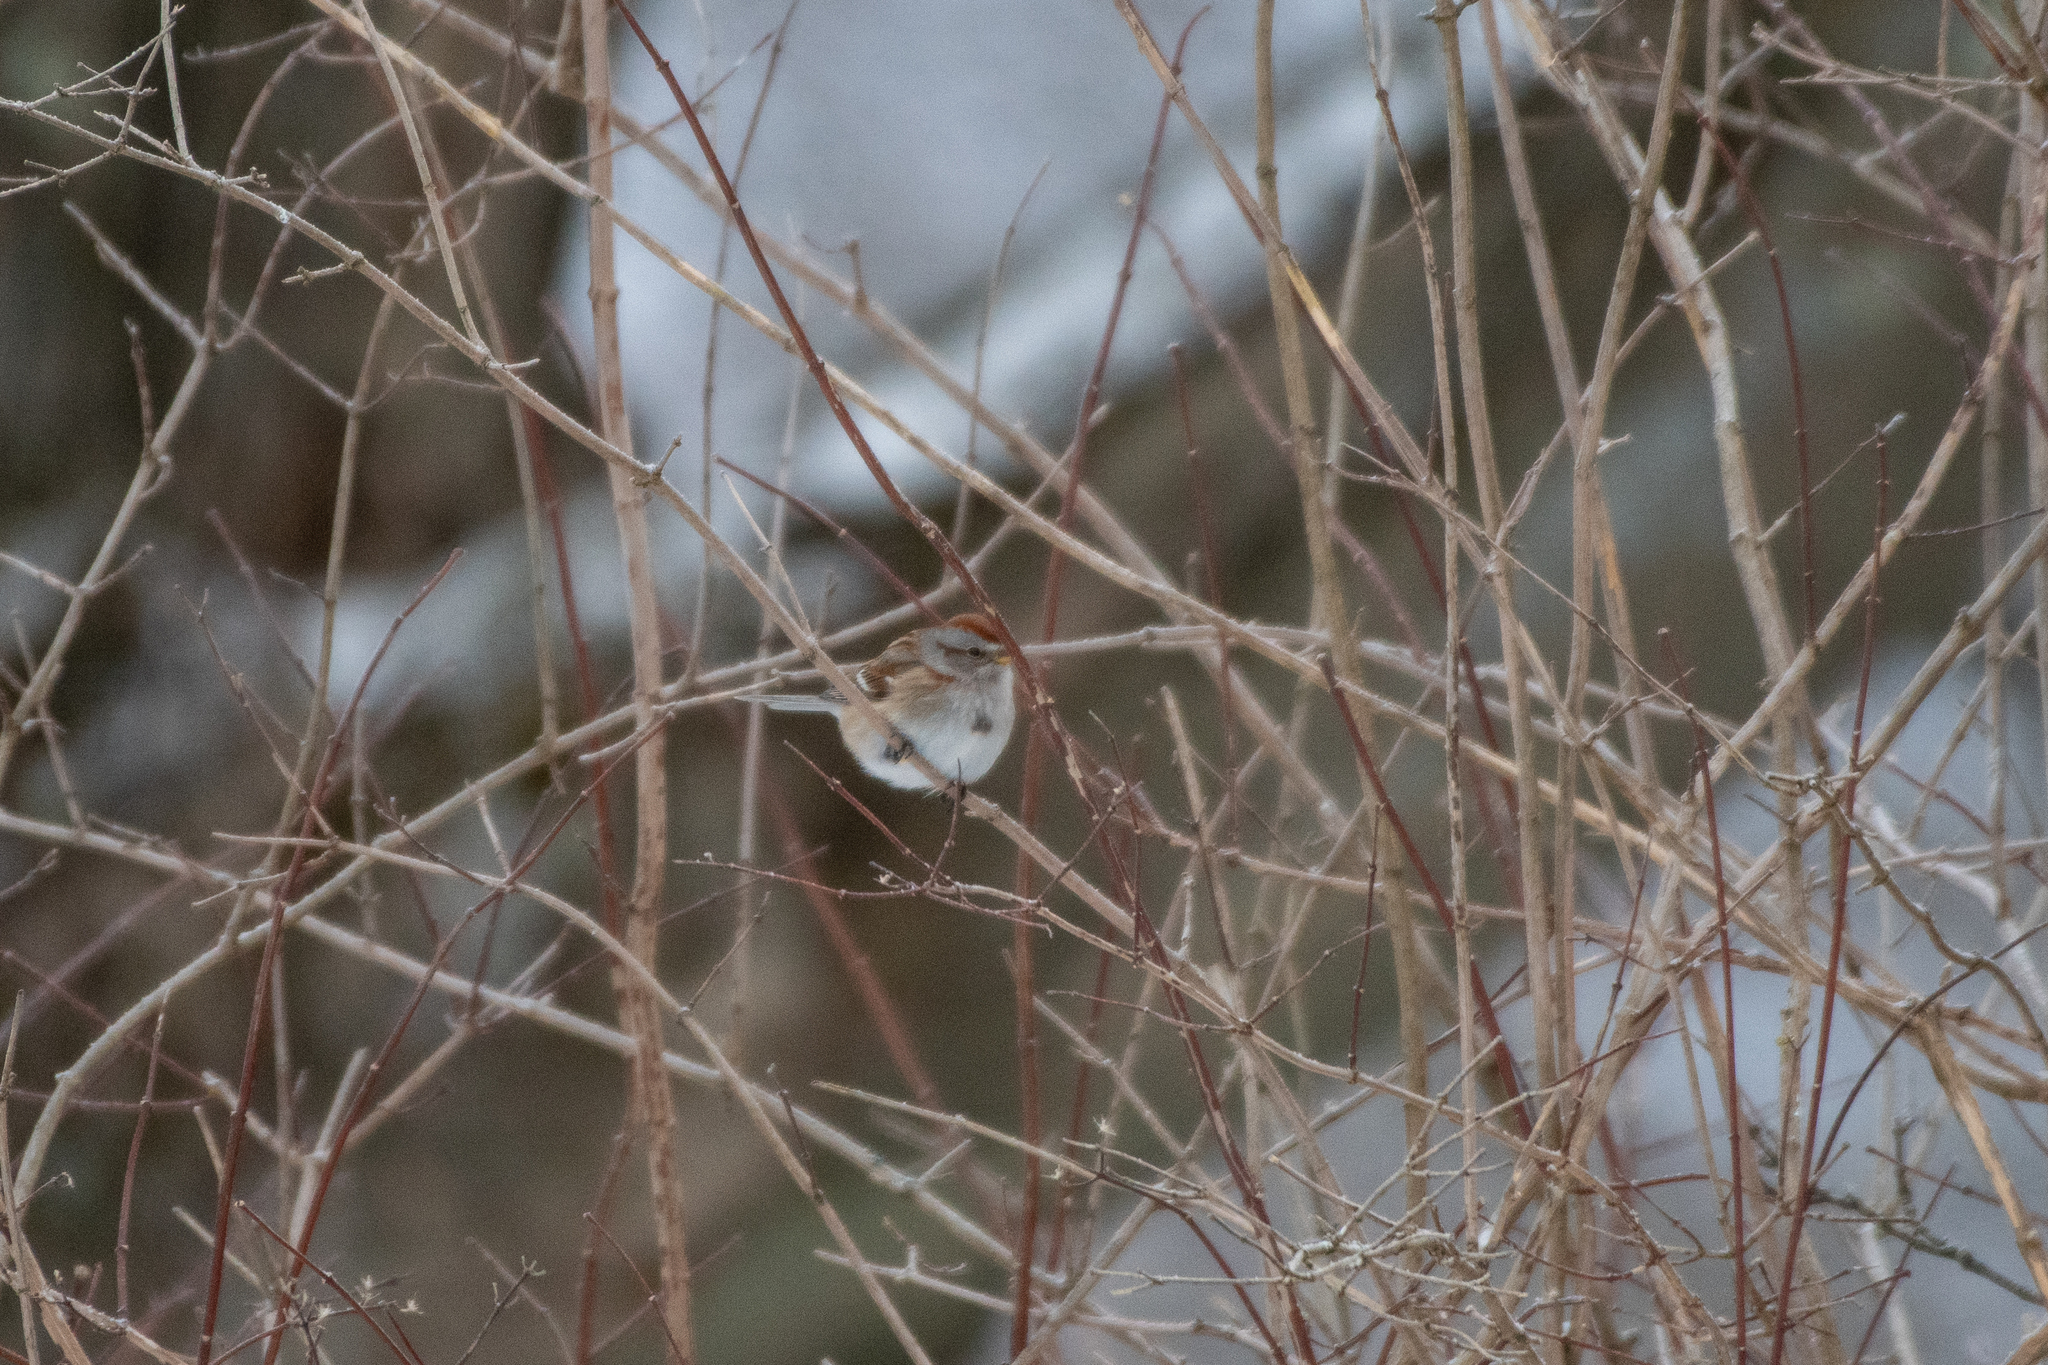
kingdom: Animalia
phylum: Chordata
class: Aves
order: Passeriformes
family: Passerellidae
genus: Spizelloides
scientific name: Spizelloides arborea
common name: American tree sparrow
